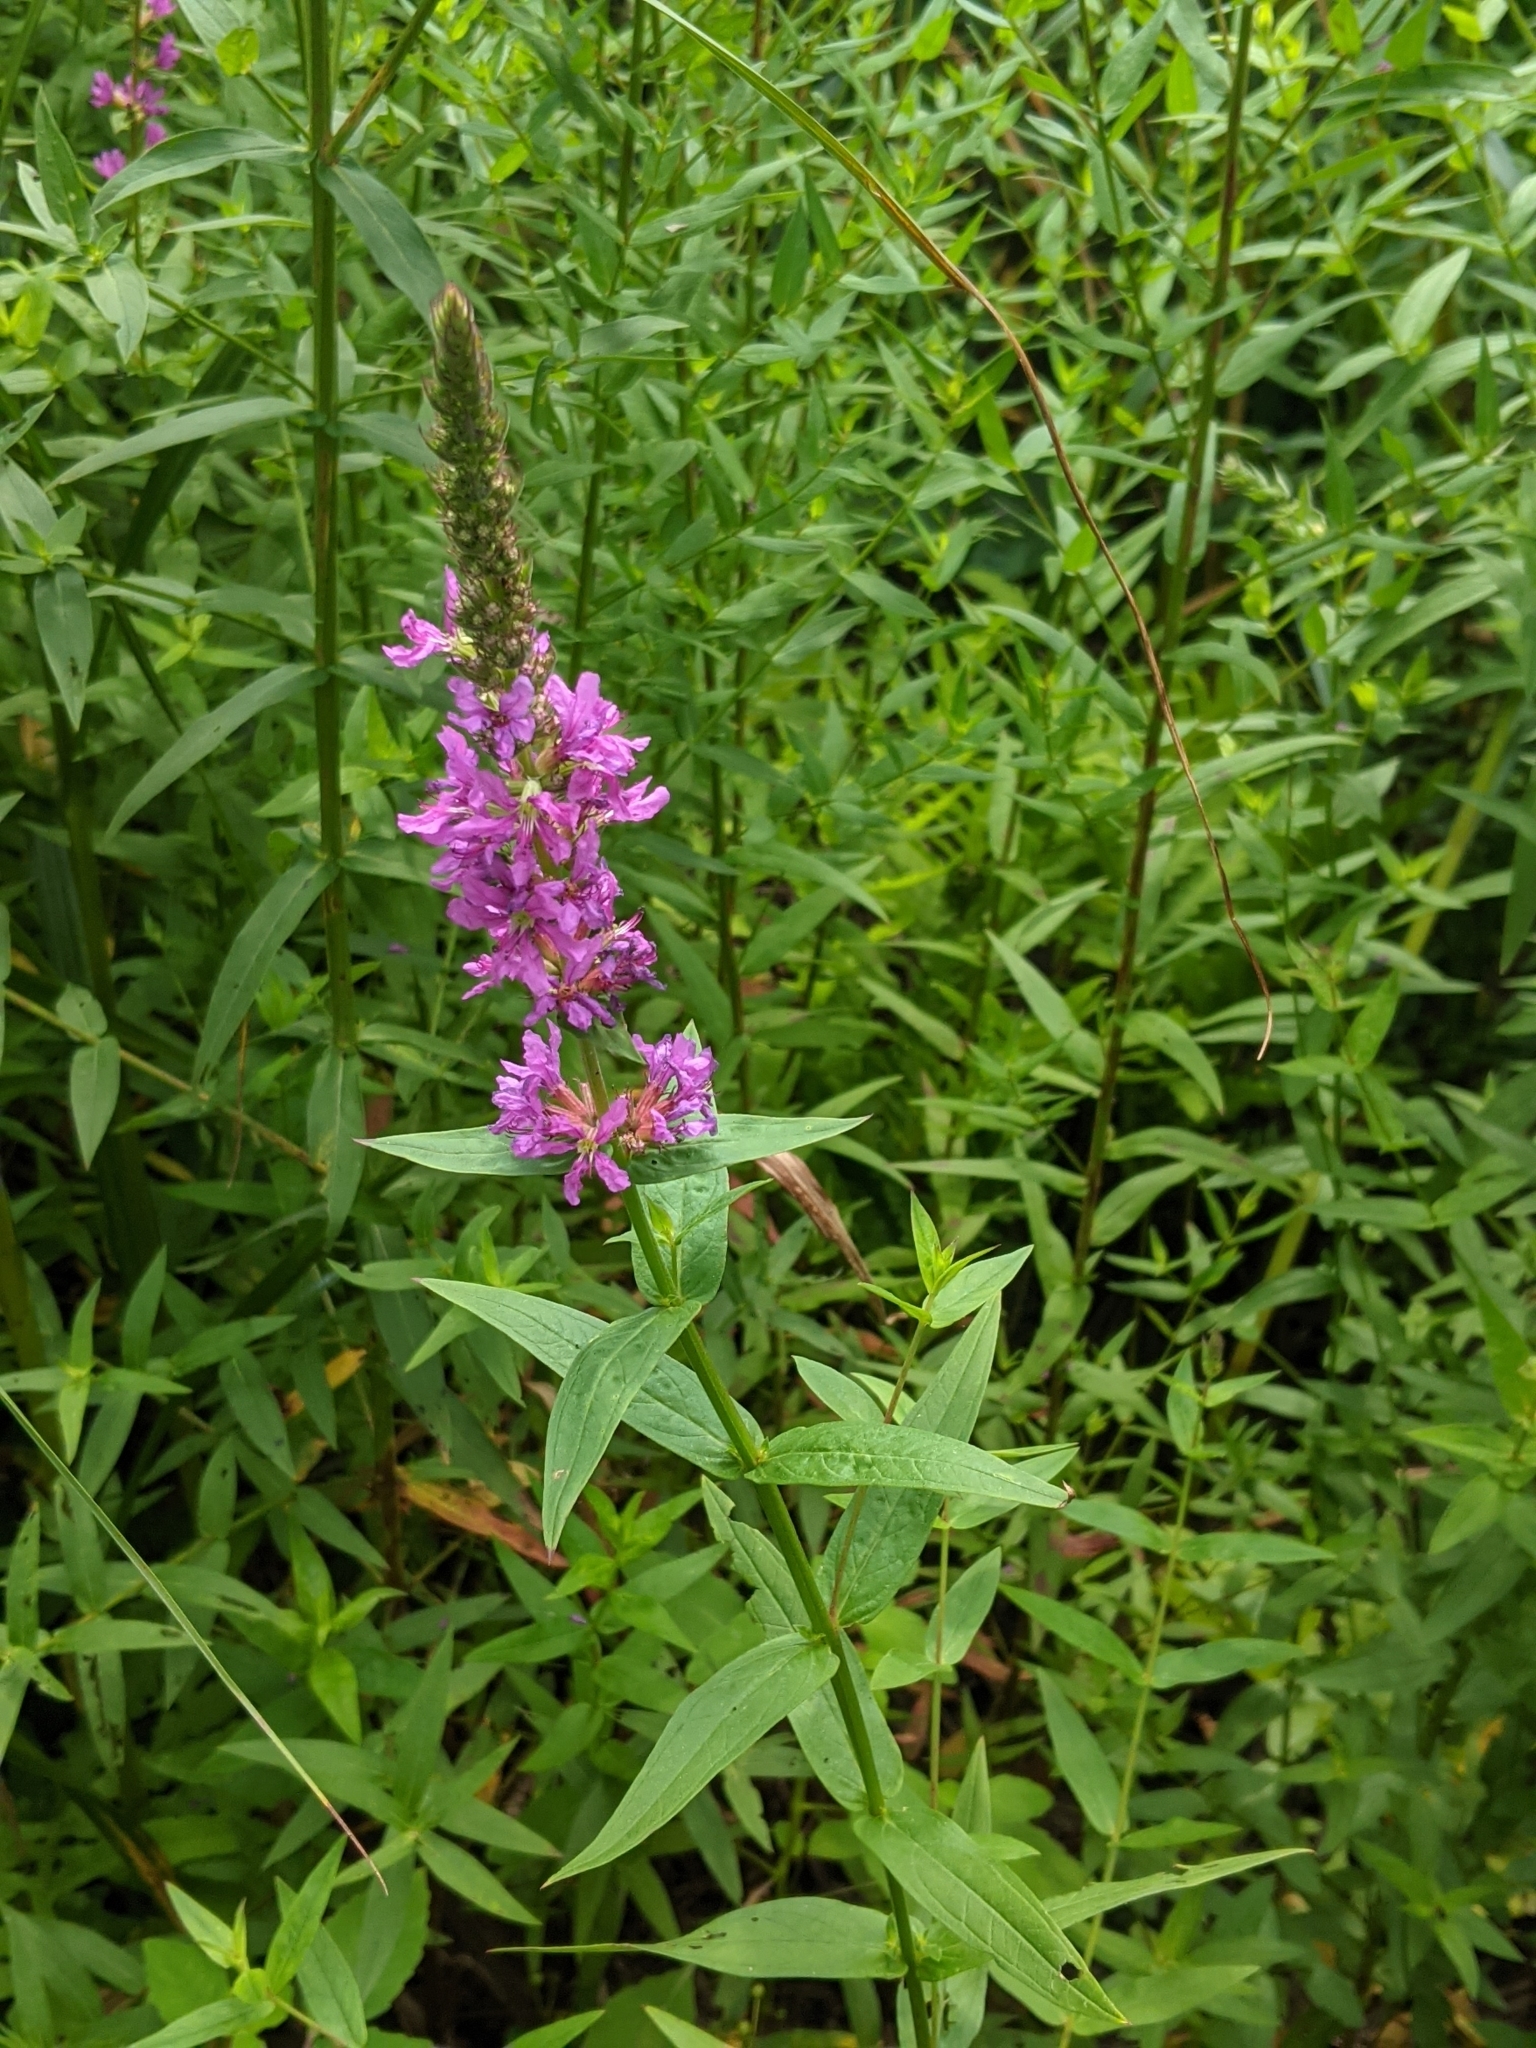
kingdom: Plantae
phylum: Tracheophyta
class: Magnoliopsida
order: Myrtales
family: Lythraceae
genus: Lythrum
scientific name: Lythrum salicaria
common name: Purple loosestrife
